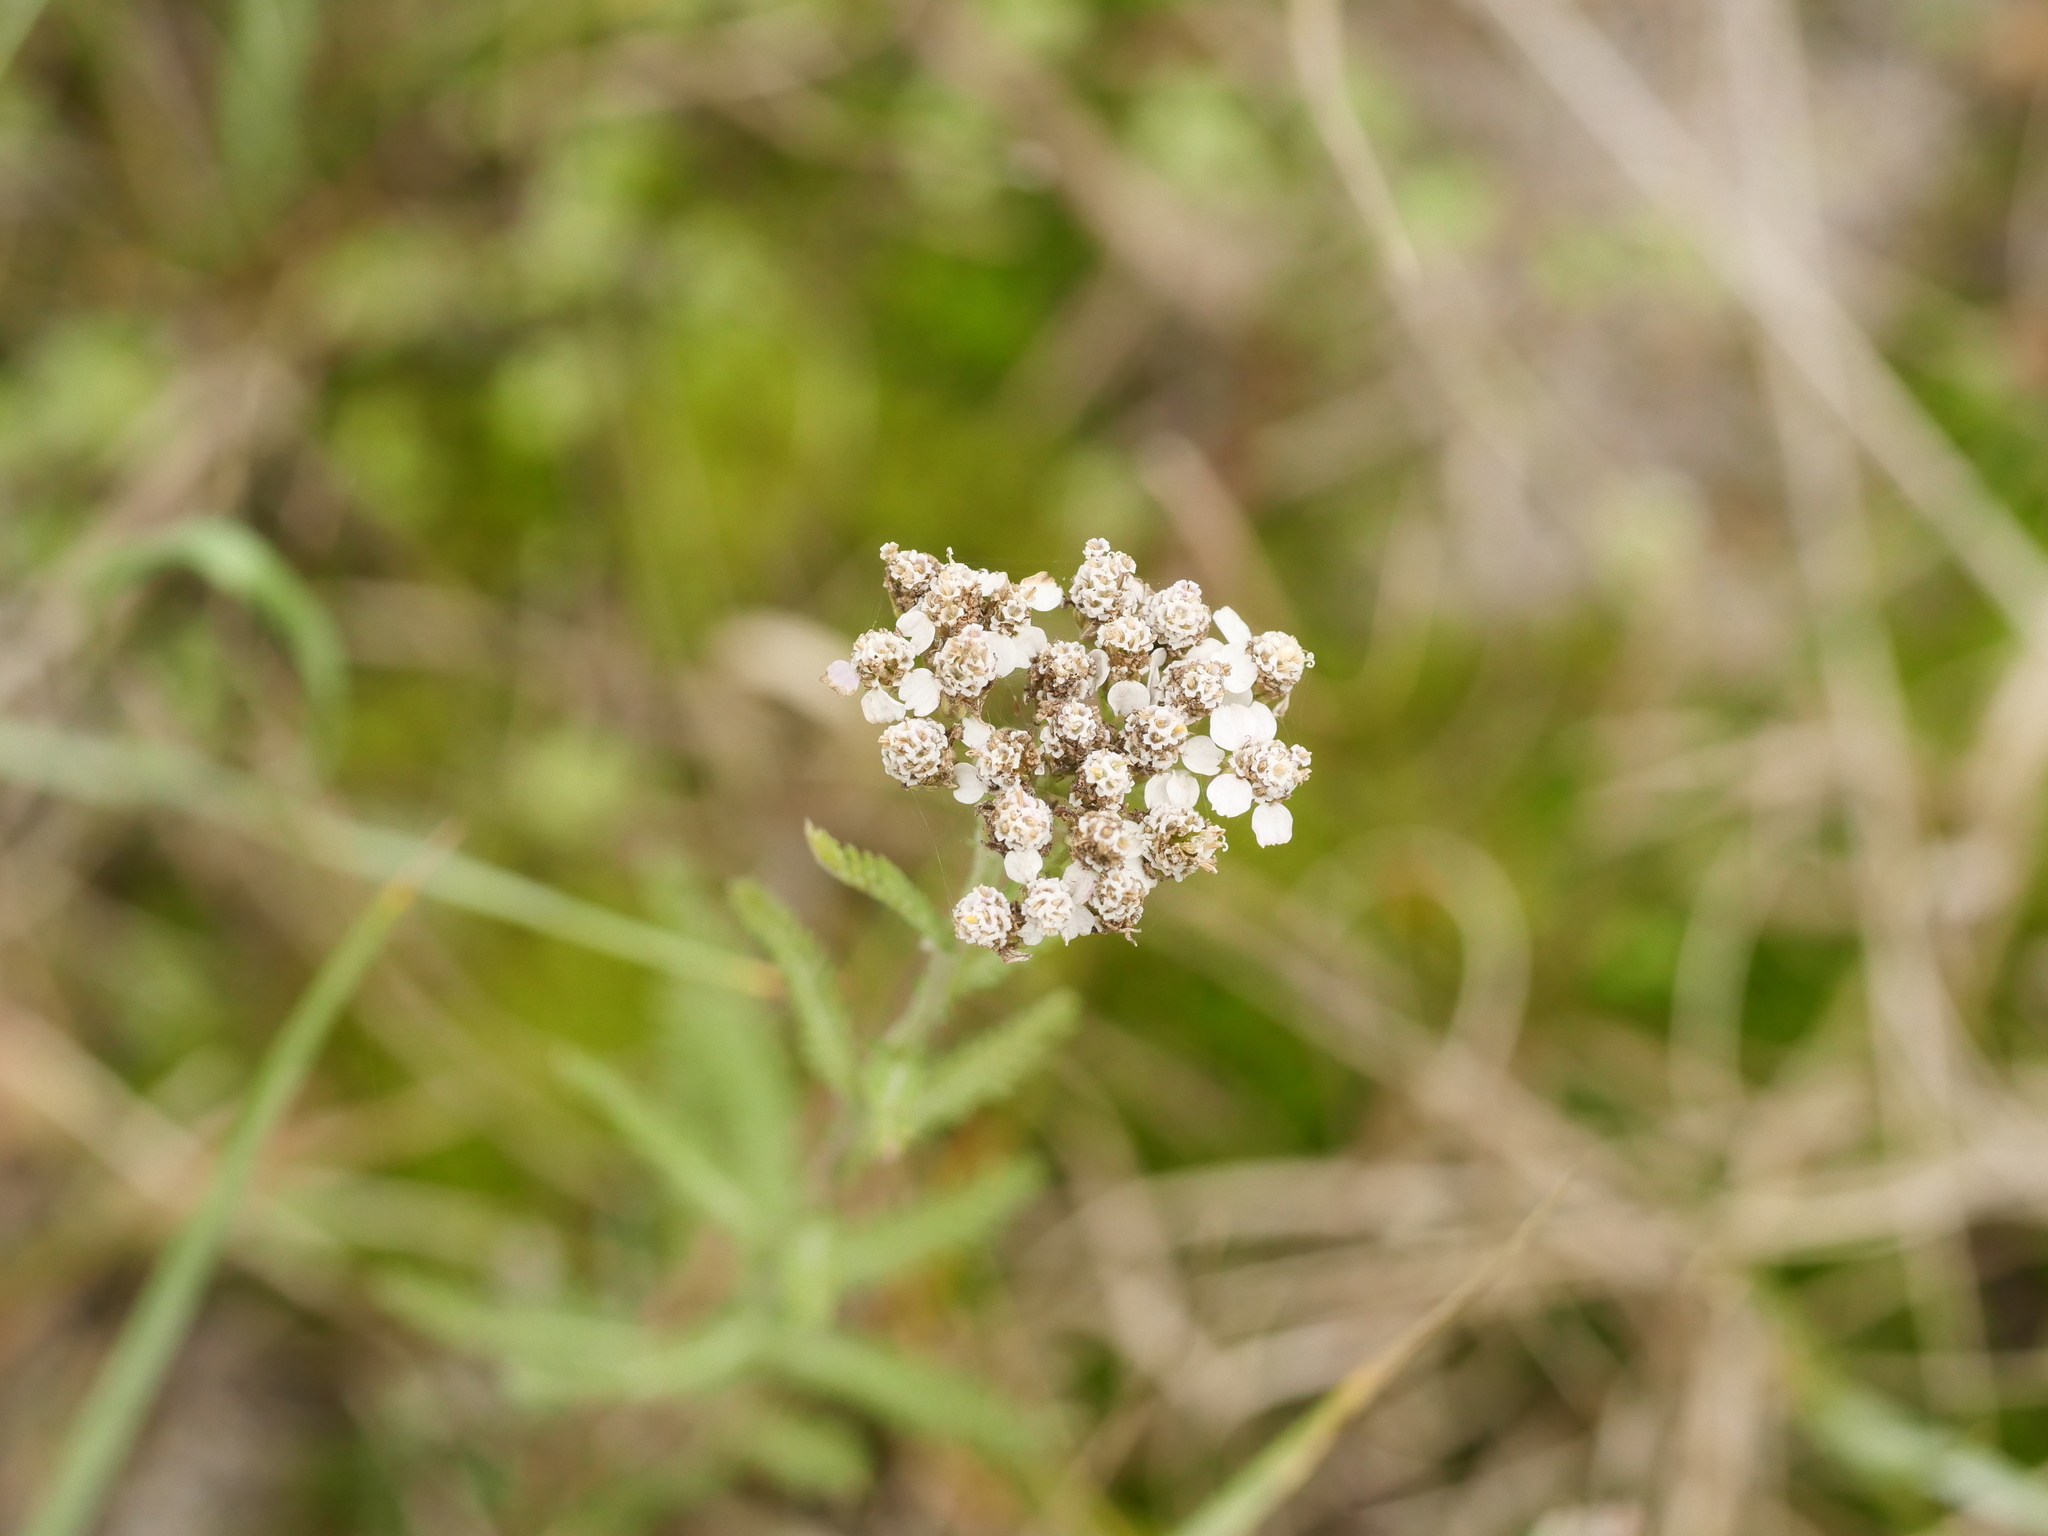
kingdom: Plantae
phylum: Tracheophyta
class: Magnoliopsida
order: Asterales
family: Asteraceae
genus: Achillea
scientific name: Achillea millefolium
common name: Yarrow
